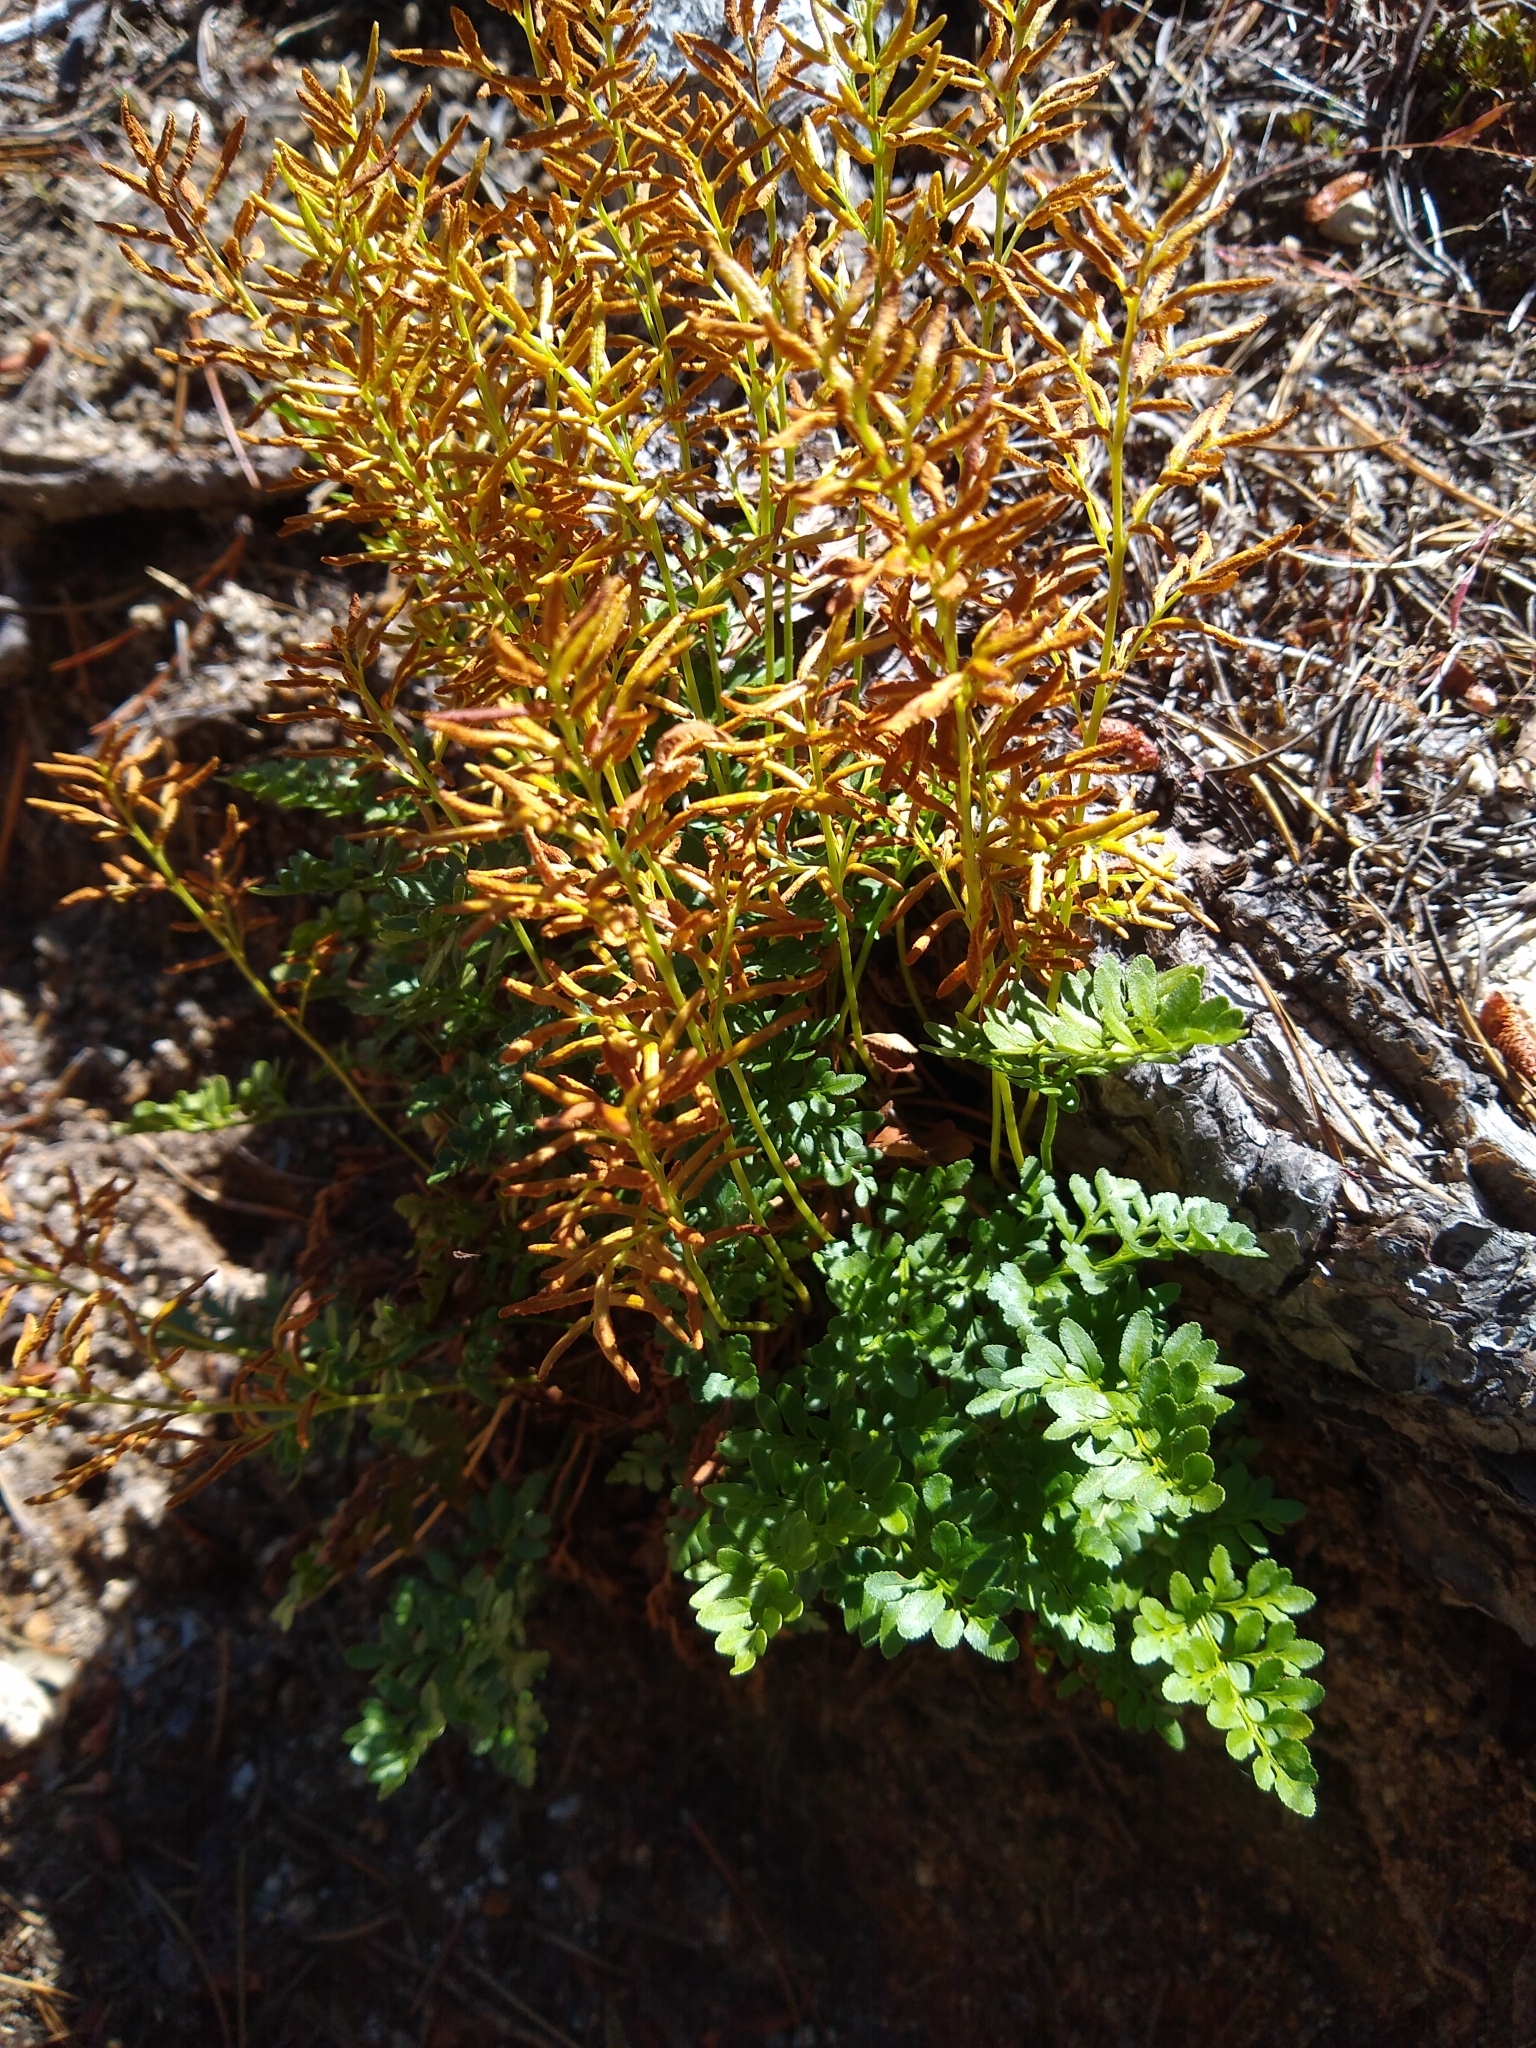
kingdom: Plantae
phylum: Tracheophyta
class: Polypodiopsida
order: Polypodiales
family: Pteridaceae
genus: Cryptogramma
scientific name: Cryptogramma acrostichoides
